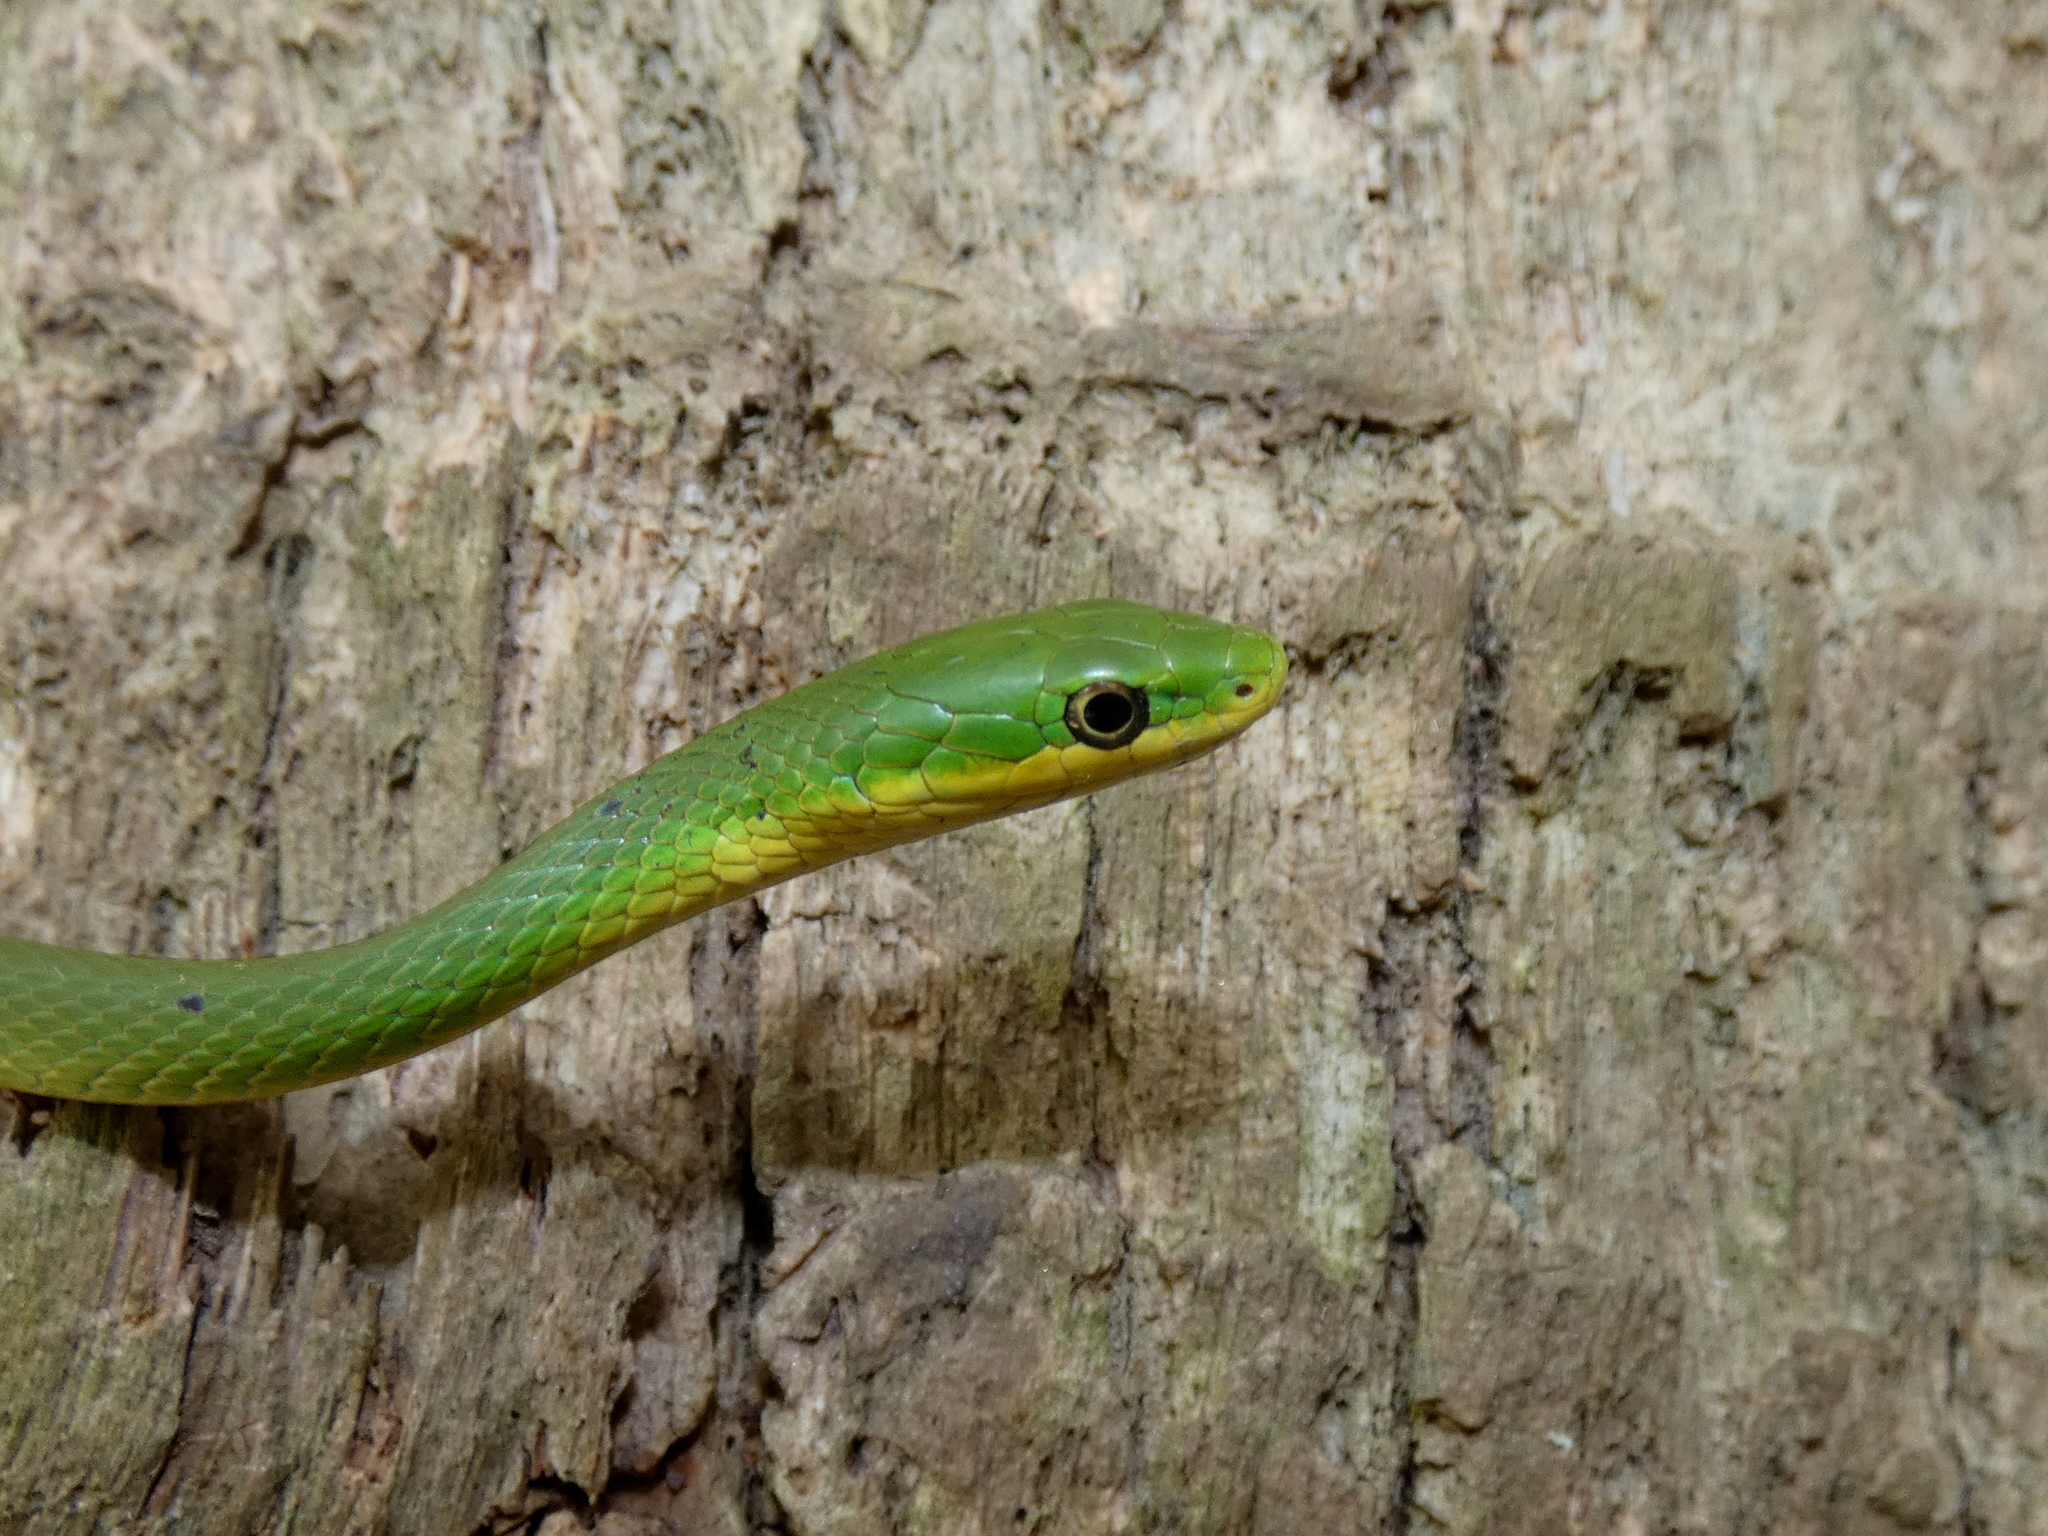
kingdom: Animalia
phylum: Chordata
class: Squamata
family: Colubridae
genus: Opheodrys
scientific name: Opheodrys aestivus
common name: Rough greensnake
